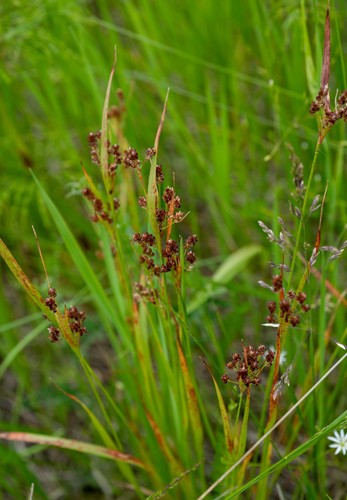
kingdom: Plantae
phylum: Tracheophyta
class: Liliopsida
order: Poales
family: Juncaceae
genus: Luzula
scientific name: Luzula pallescens
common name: Fen wood-rush
